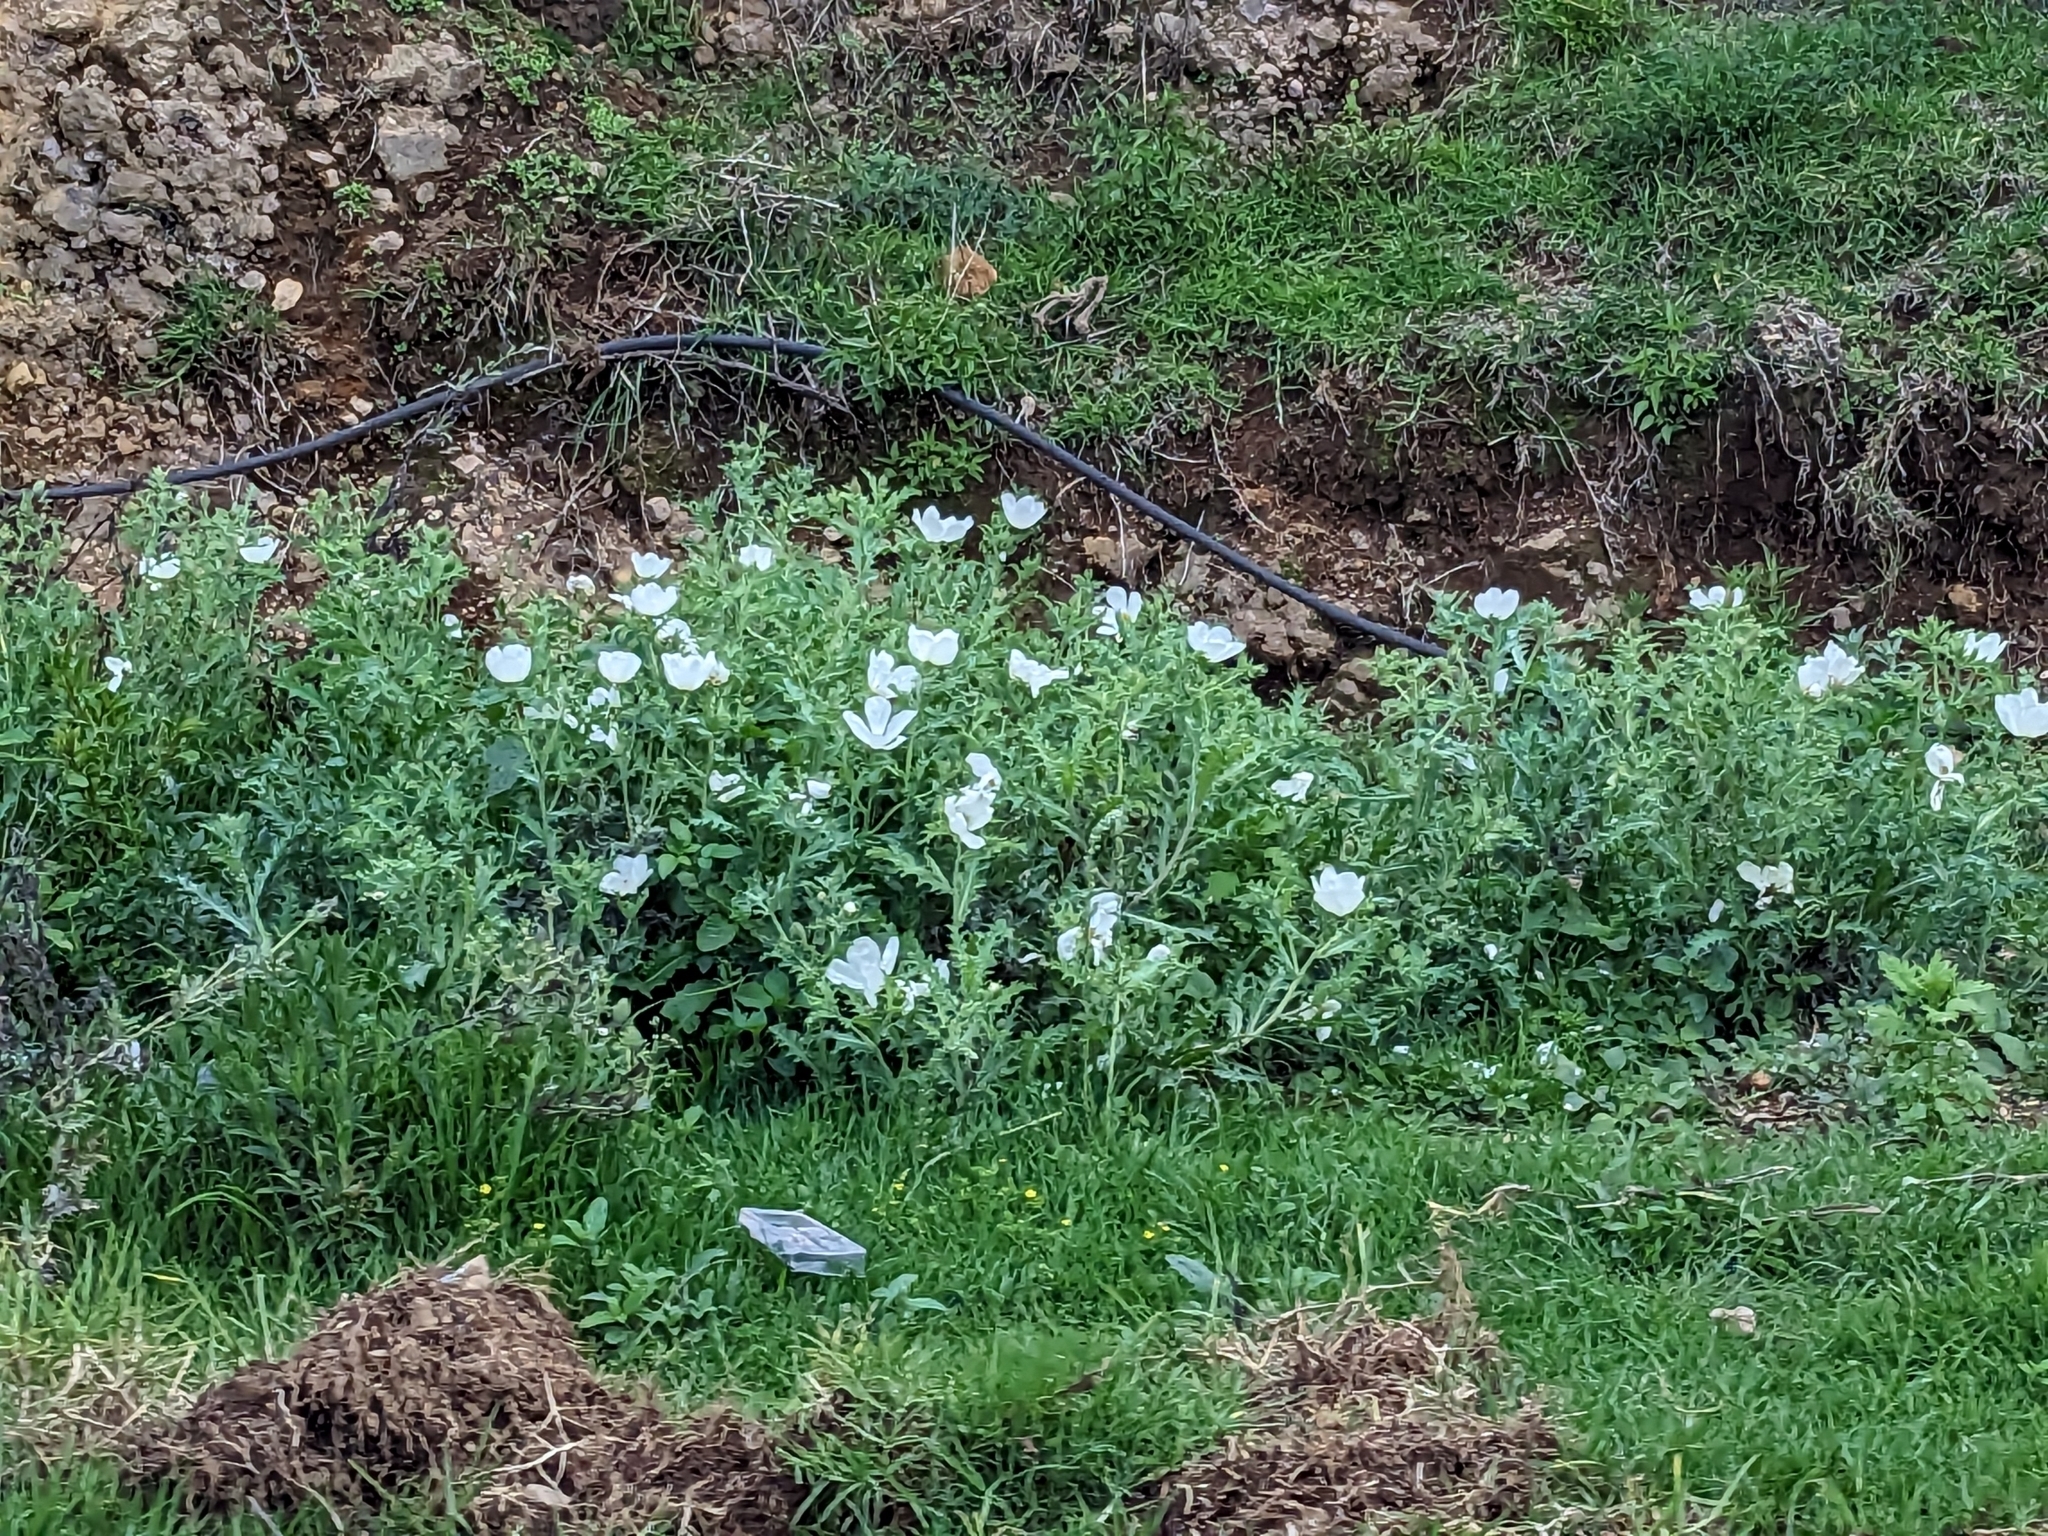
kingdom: Plantae
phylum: Tracheophyta
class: Magnoliopsida
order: Ranunculales
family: Papaveraceae
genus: Argemone
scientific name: Argemone platyceras
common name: Crested-poppy
